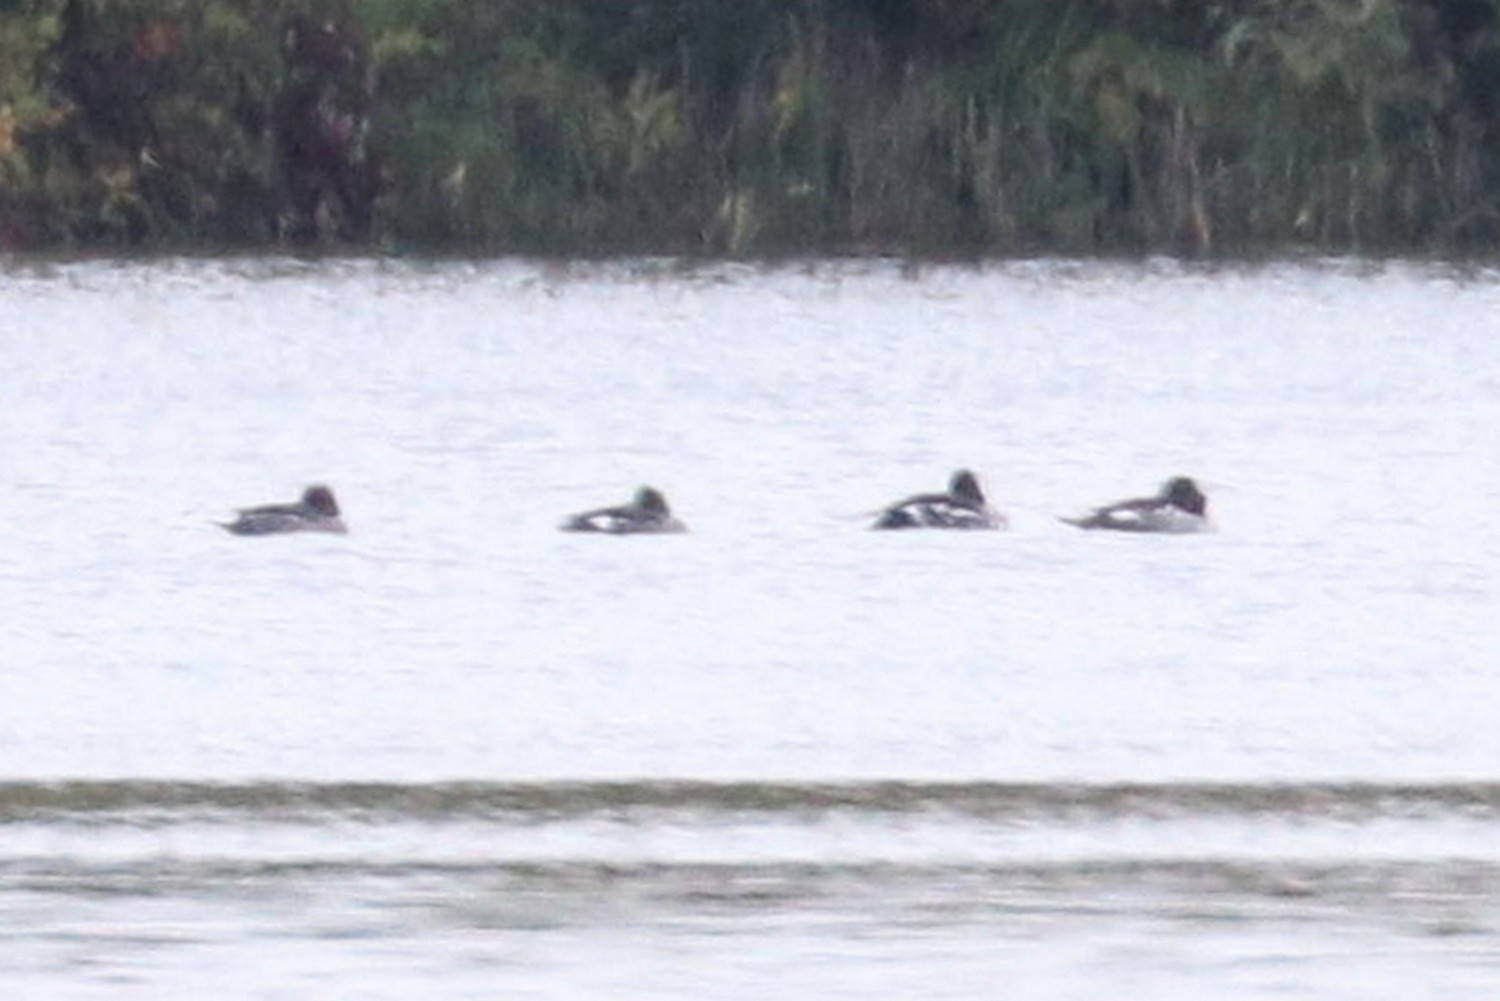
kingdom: Animalia
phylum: Chordata
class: Aves
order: Anseriformes
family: Anatidae
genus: Bucephala
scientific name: Bucephala clangula
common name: Common goldeneye
